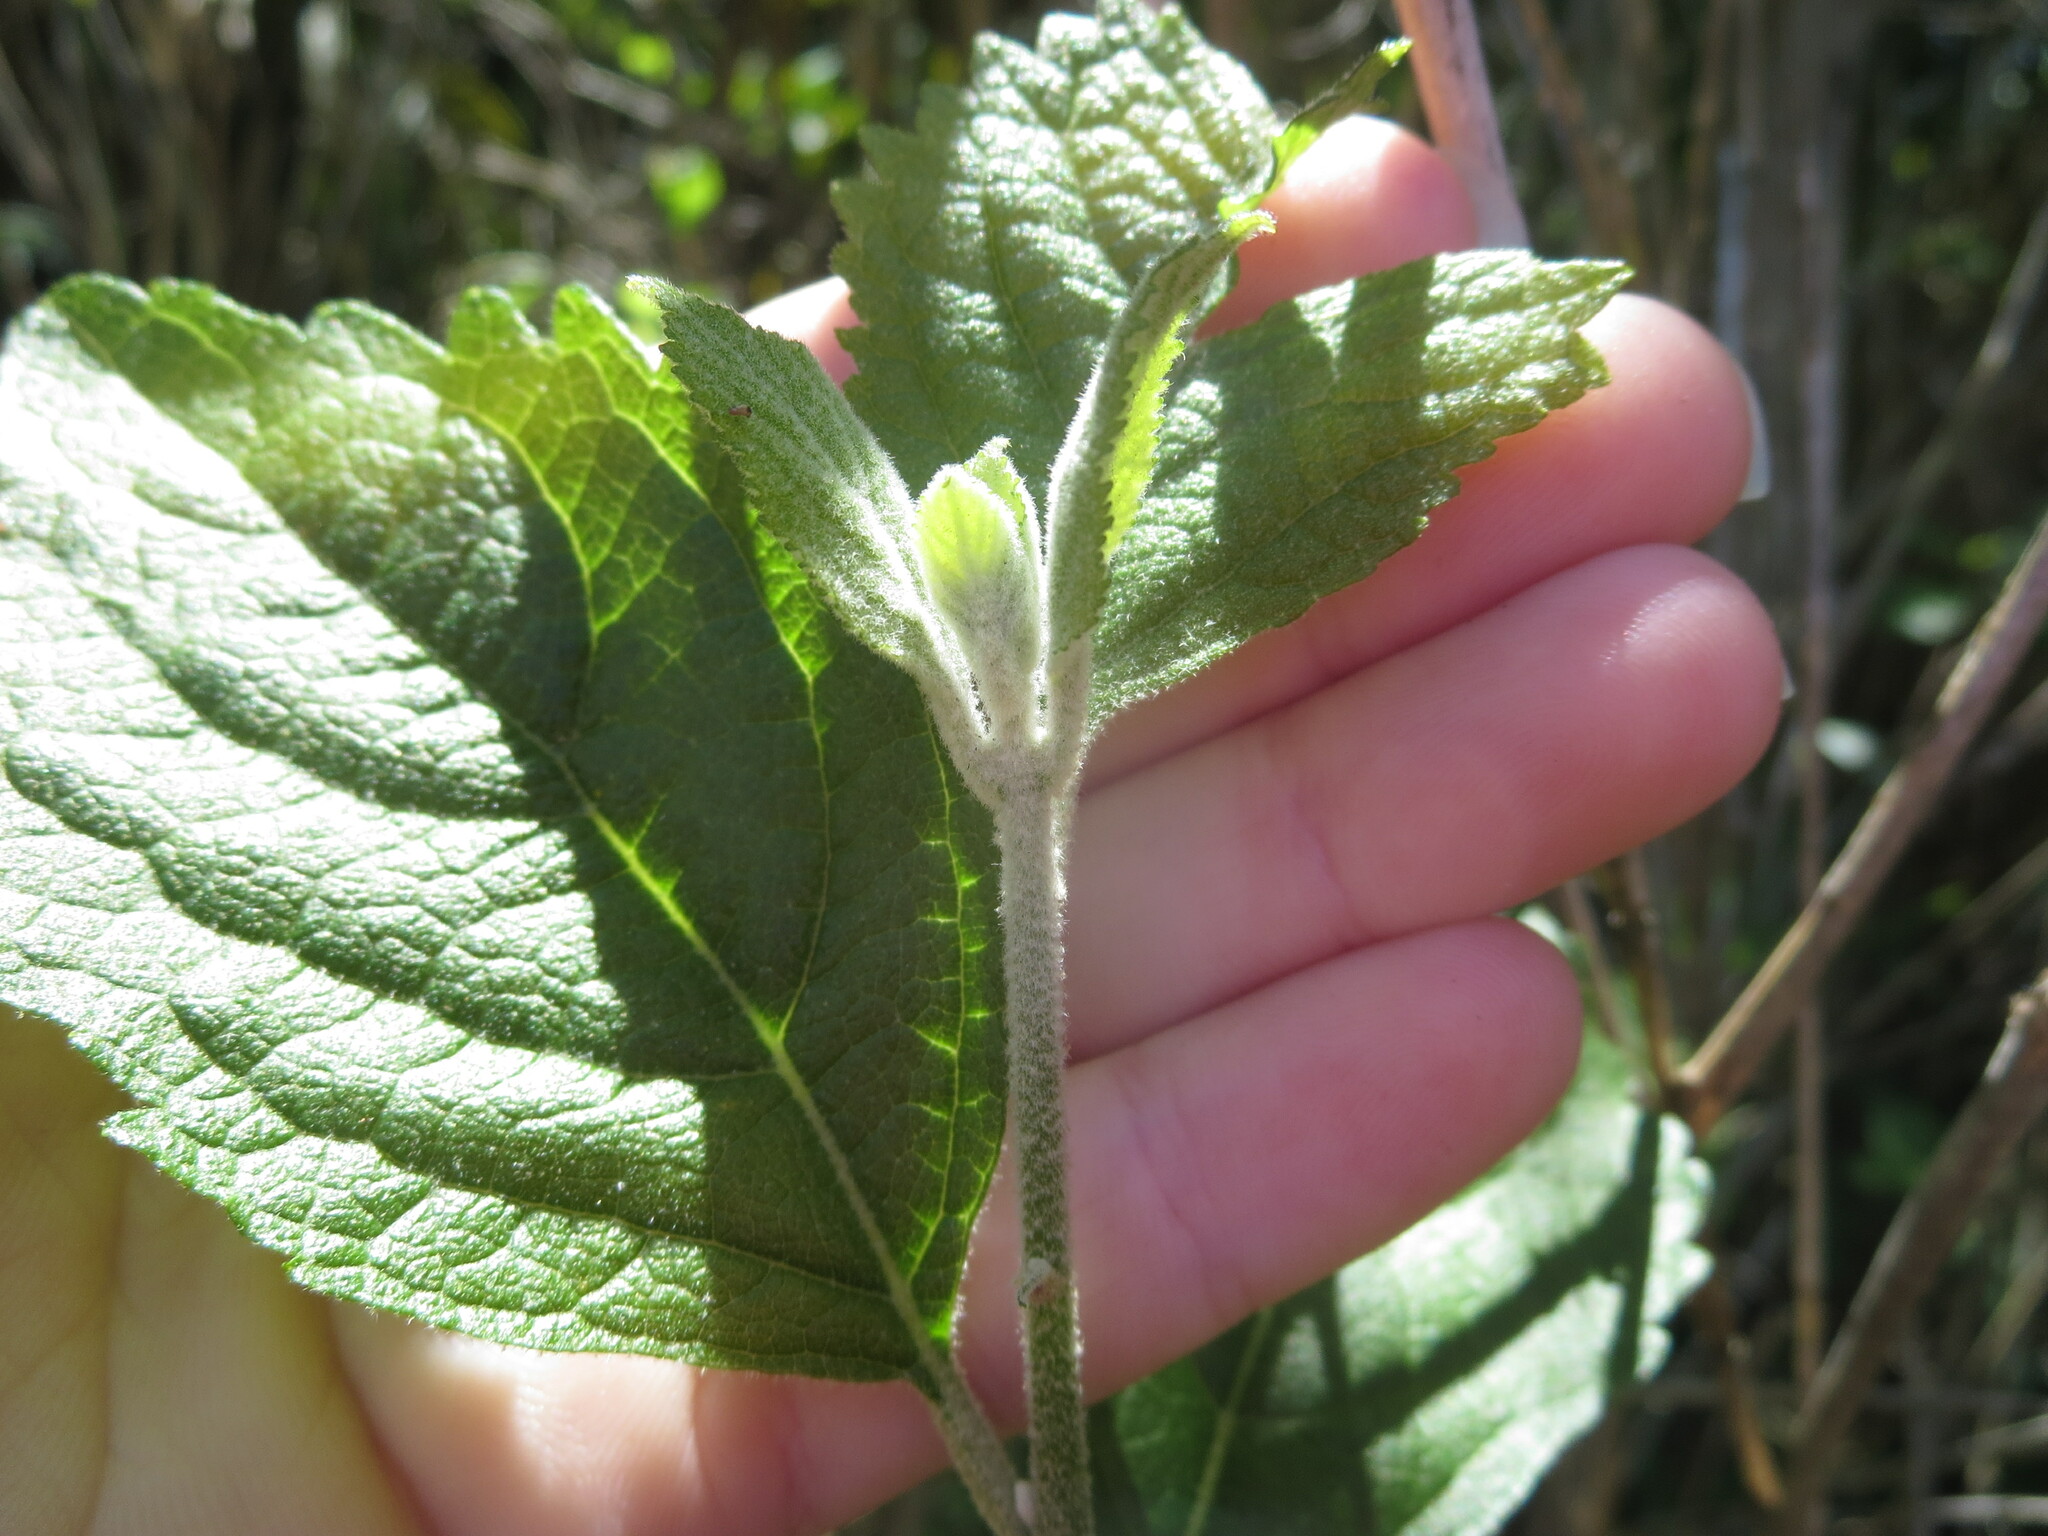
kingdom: Plantae
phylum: Tracheophyta
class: Magnoliopsida
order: Lamiales
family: Lamiaceae
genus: Callicarpa
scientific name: Callicarpa americana
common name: American beautyberry
